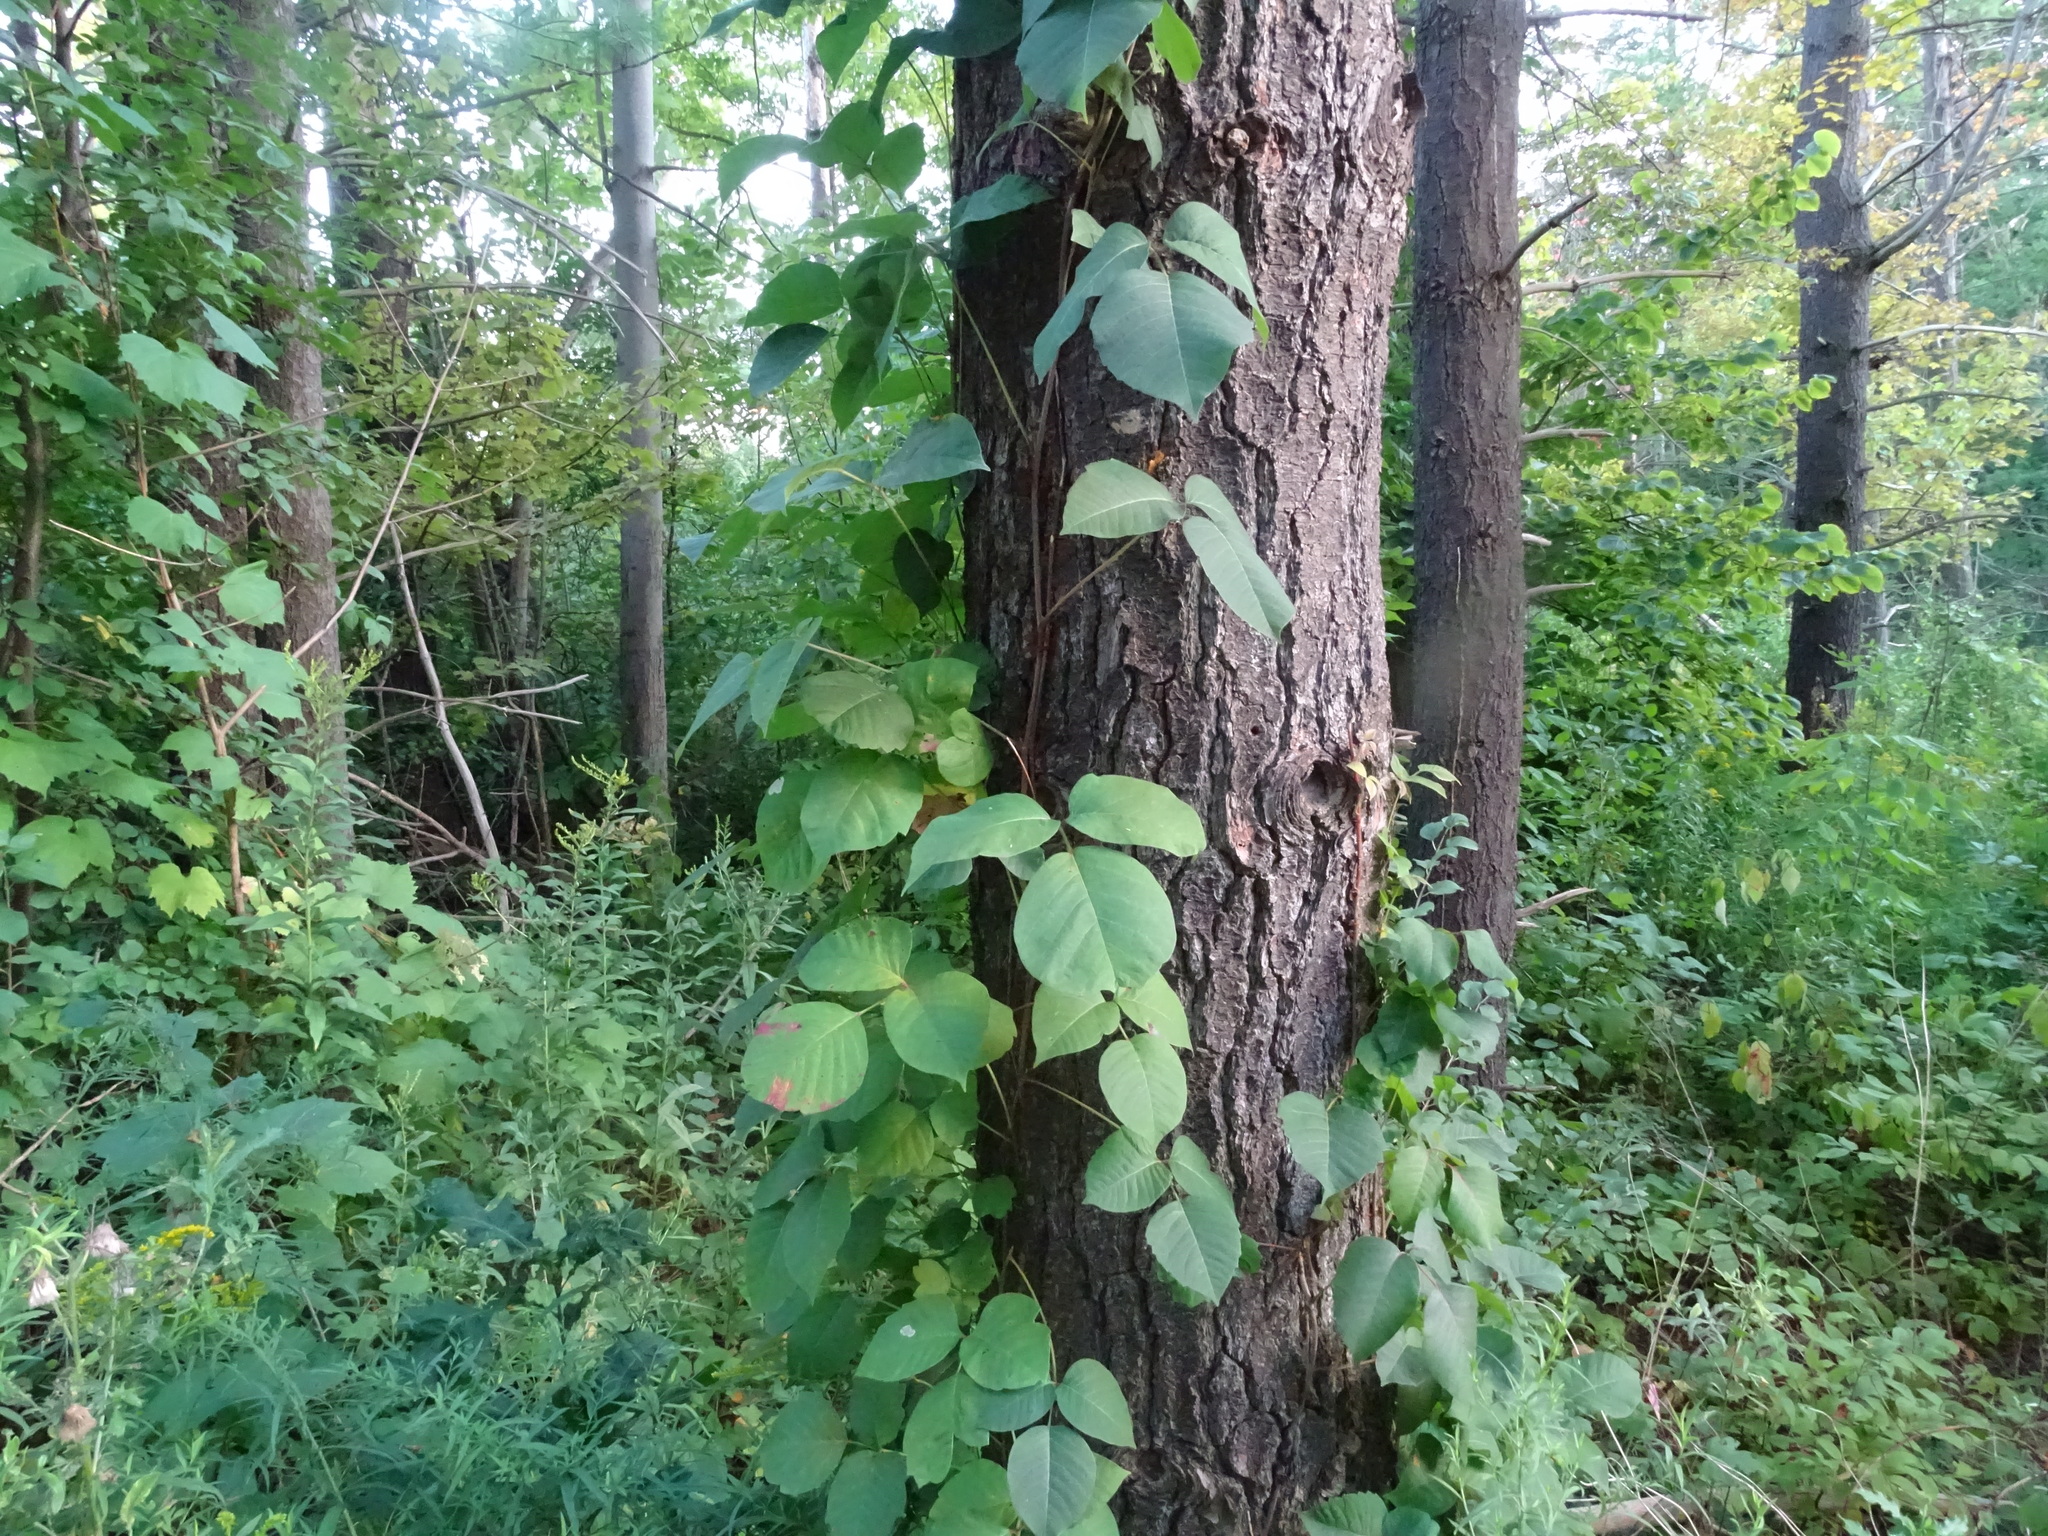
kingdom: Plantae
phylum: Tracheophyta
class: Magnoliopsida
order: Sapindales
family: Anacardiaceae
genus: Toxicodendron
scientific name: Toxicodendron radicans
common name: Poison ivy
